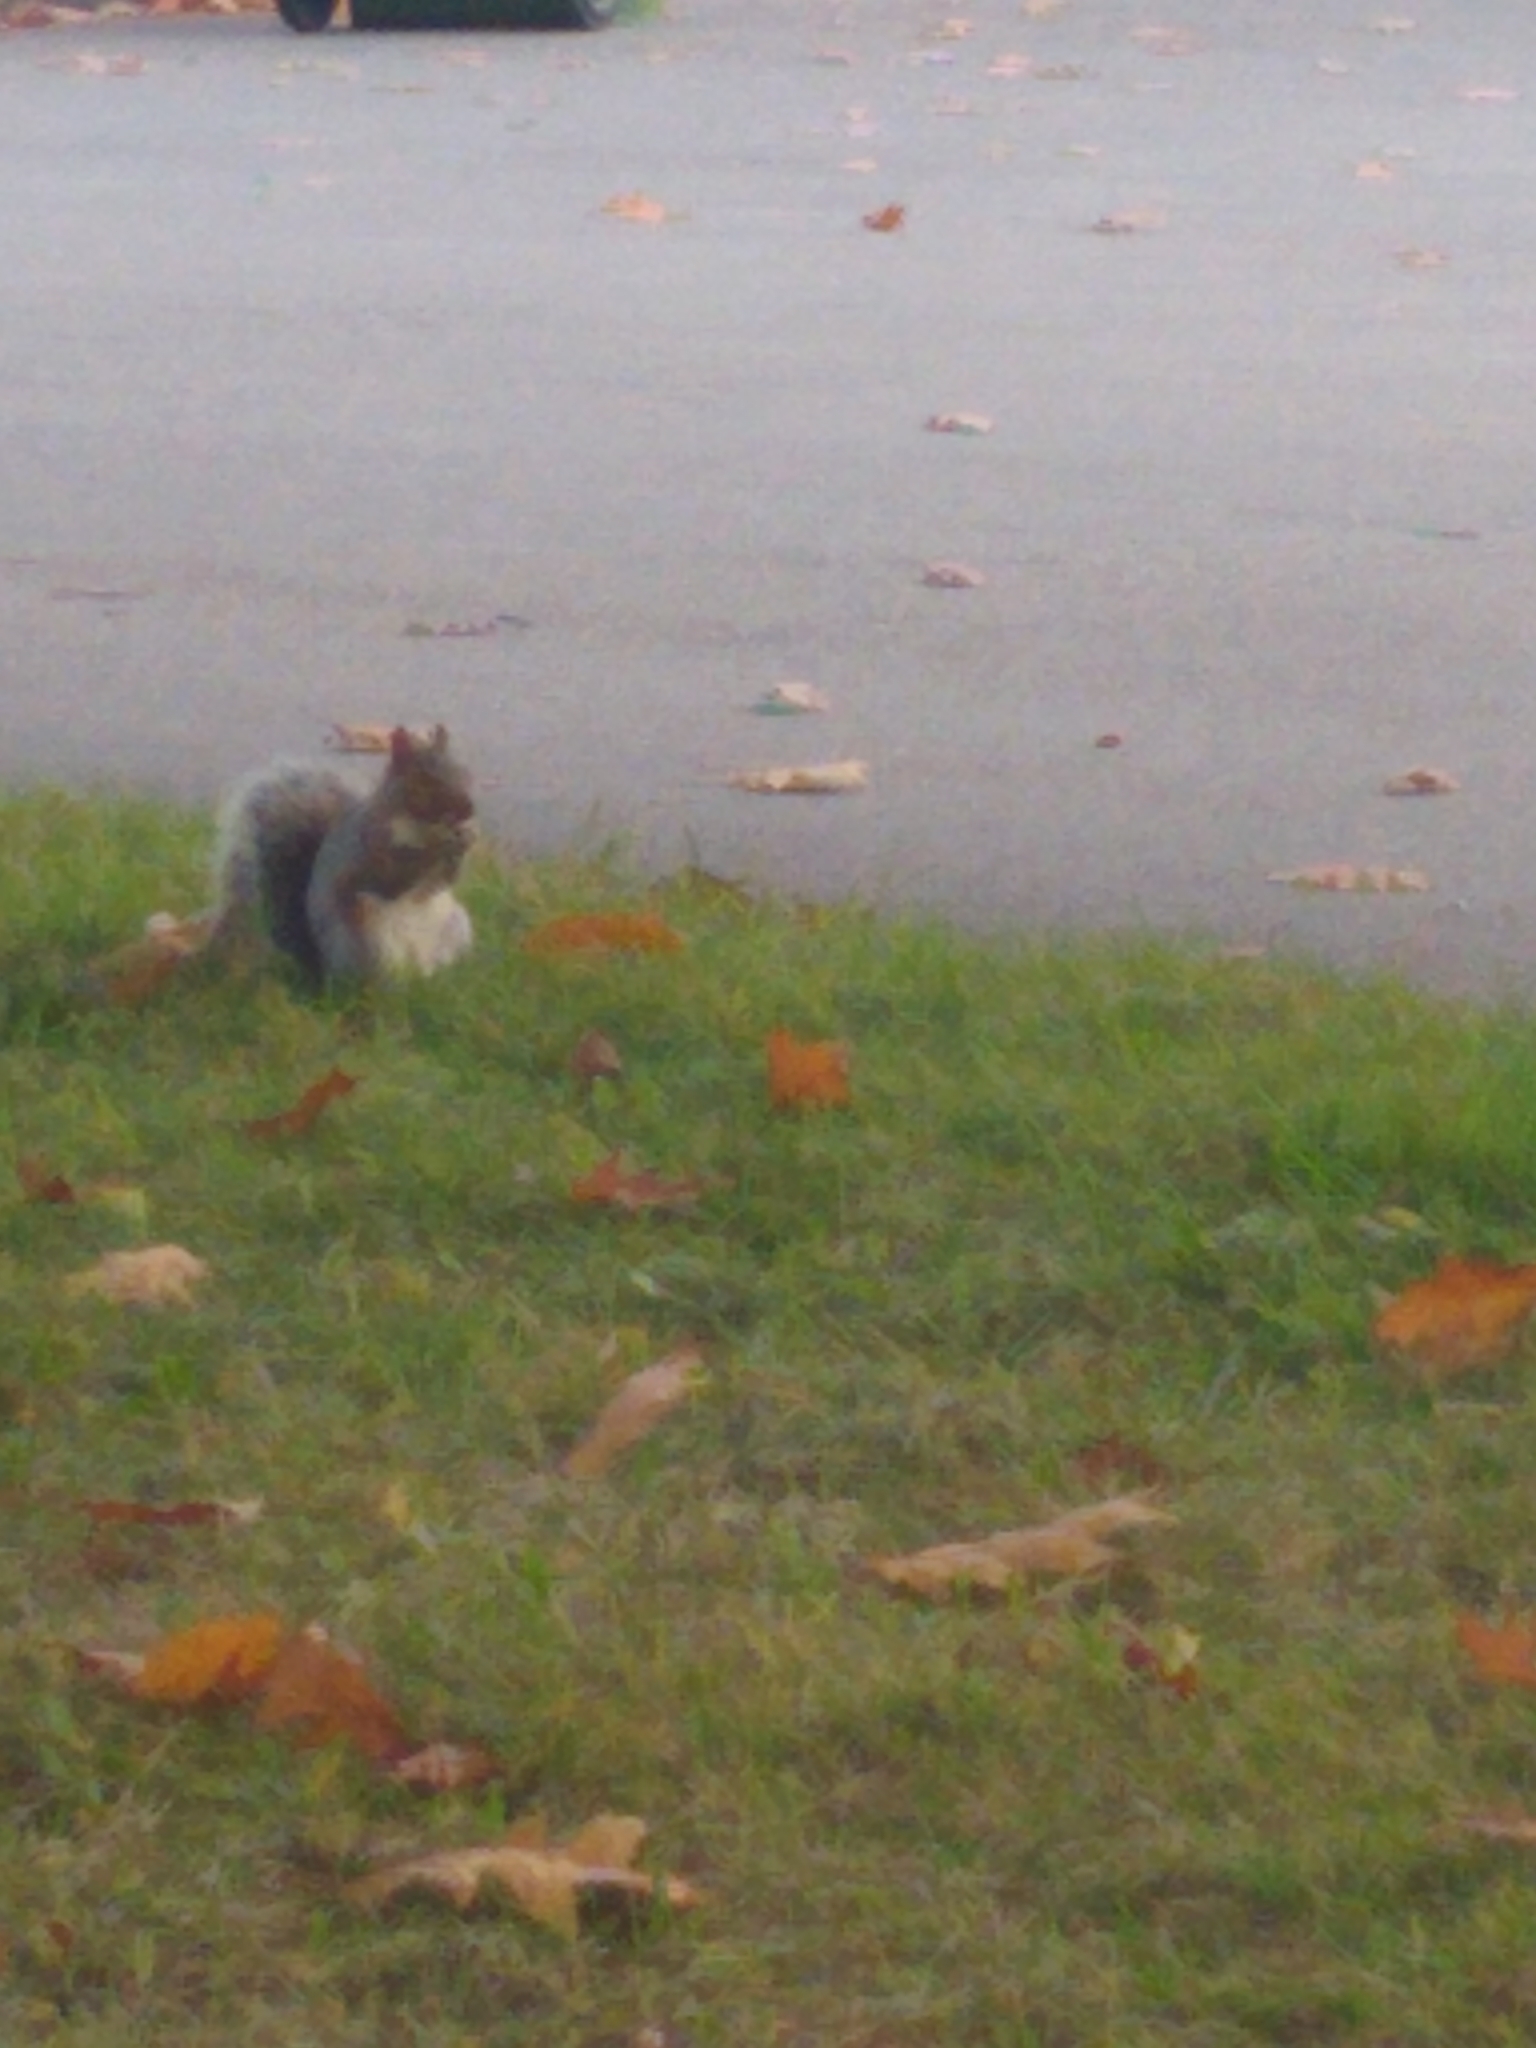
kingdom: Animalia
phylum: Chordata
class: Mammalia
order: Rodentia
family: Sciuridae
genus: Sciurus
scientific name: Sciurus carolinensis
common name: Eastern gray squirrel
